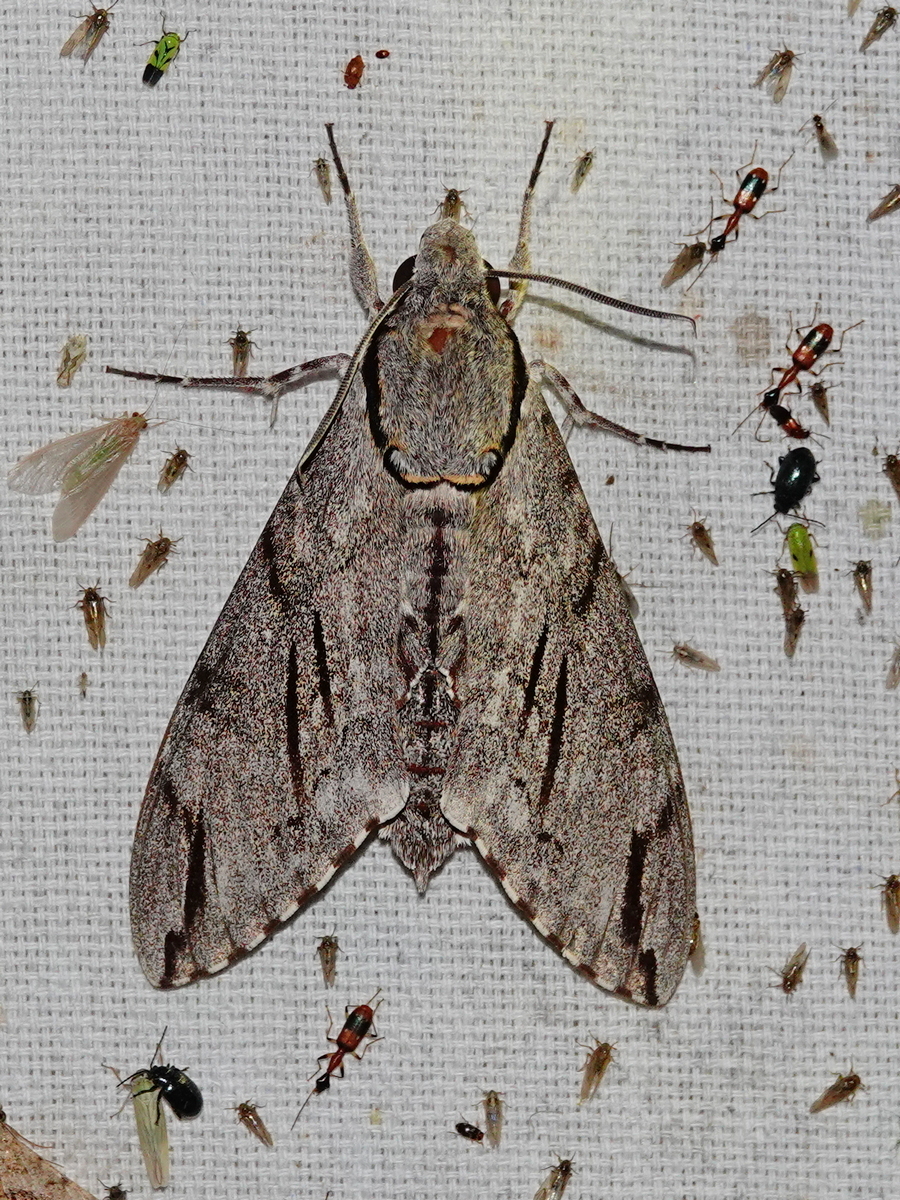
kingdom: Animalia
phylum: Arthropoda
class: Insecta
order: Lepidoptera
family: Sphingidae
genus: Psilogramma
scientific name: Psilogramma increta
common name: Gray hawk moth
